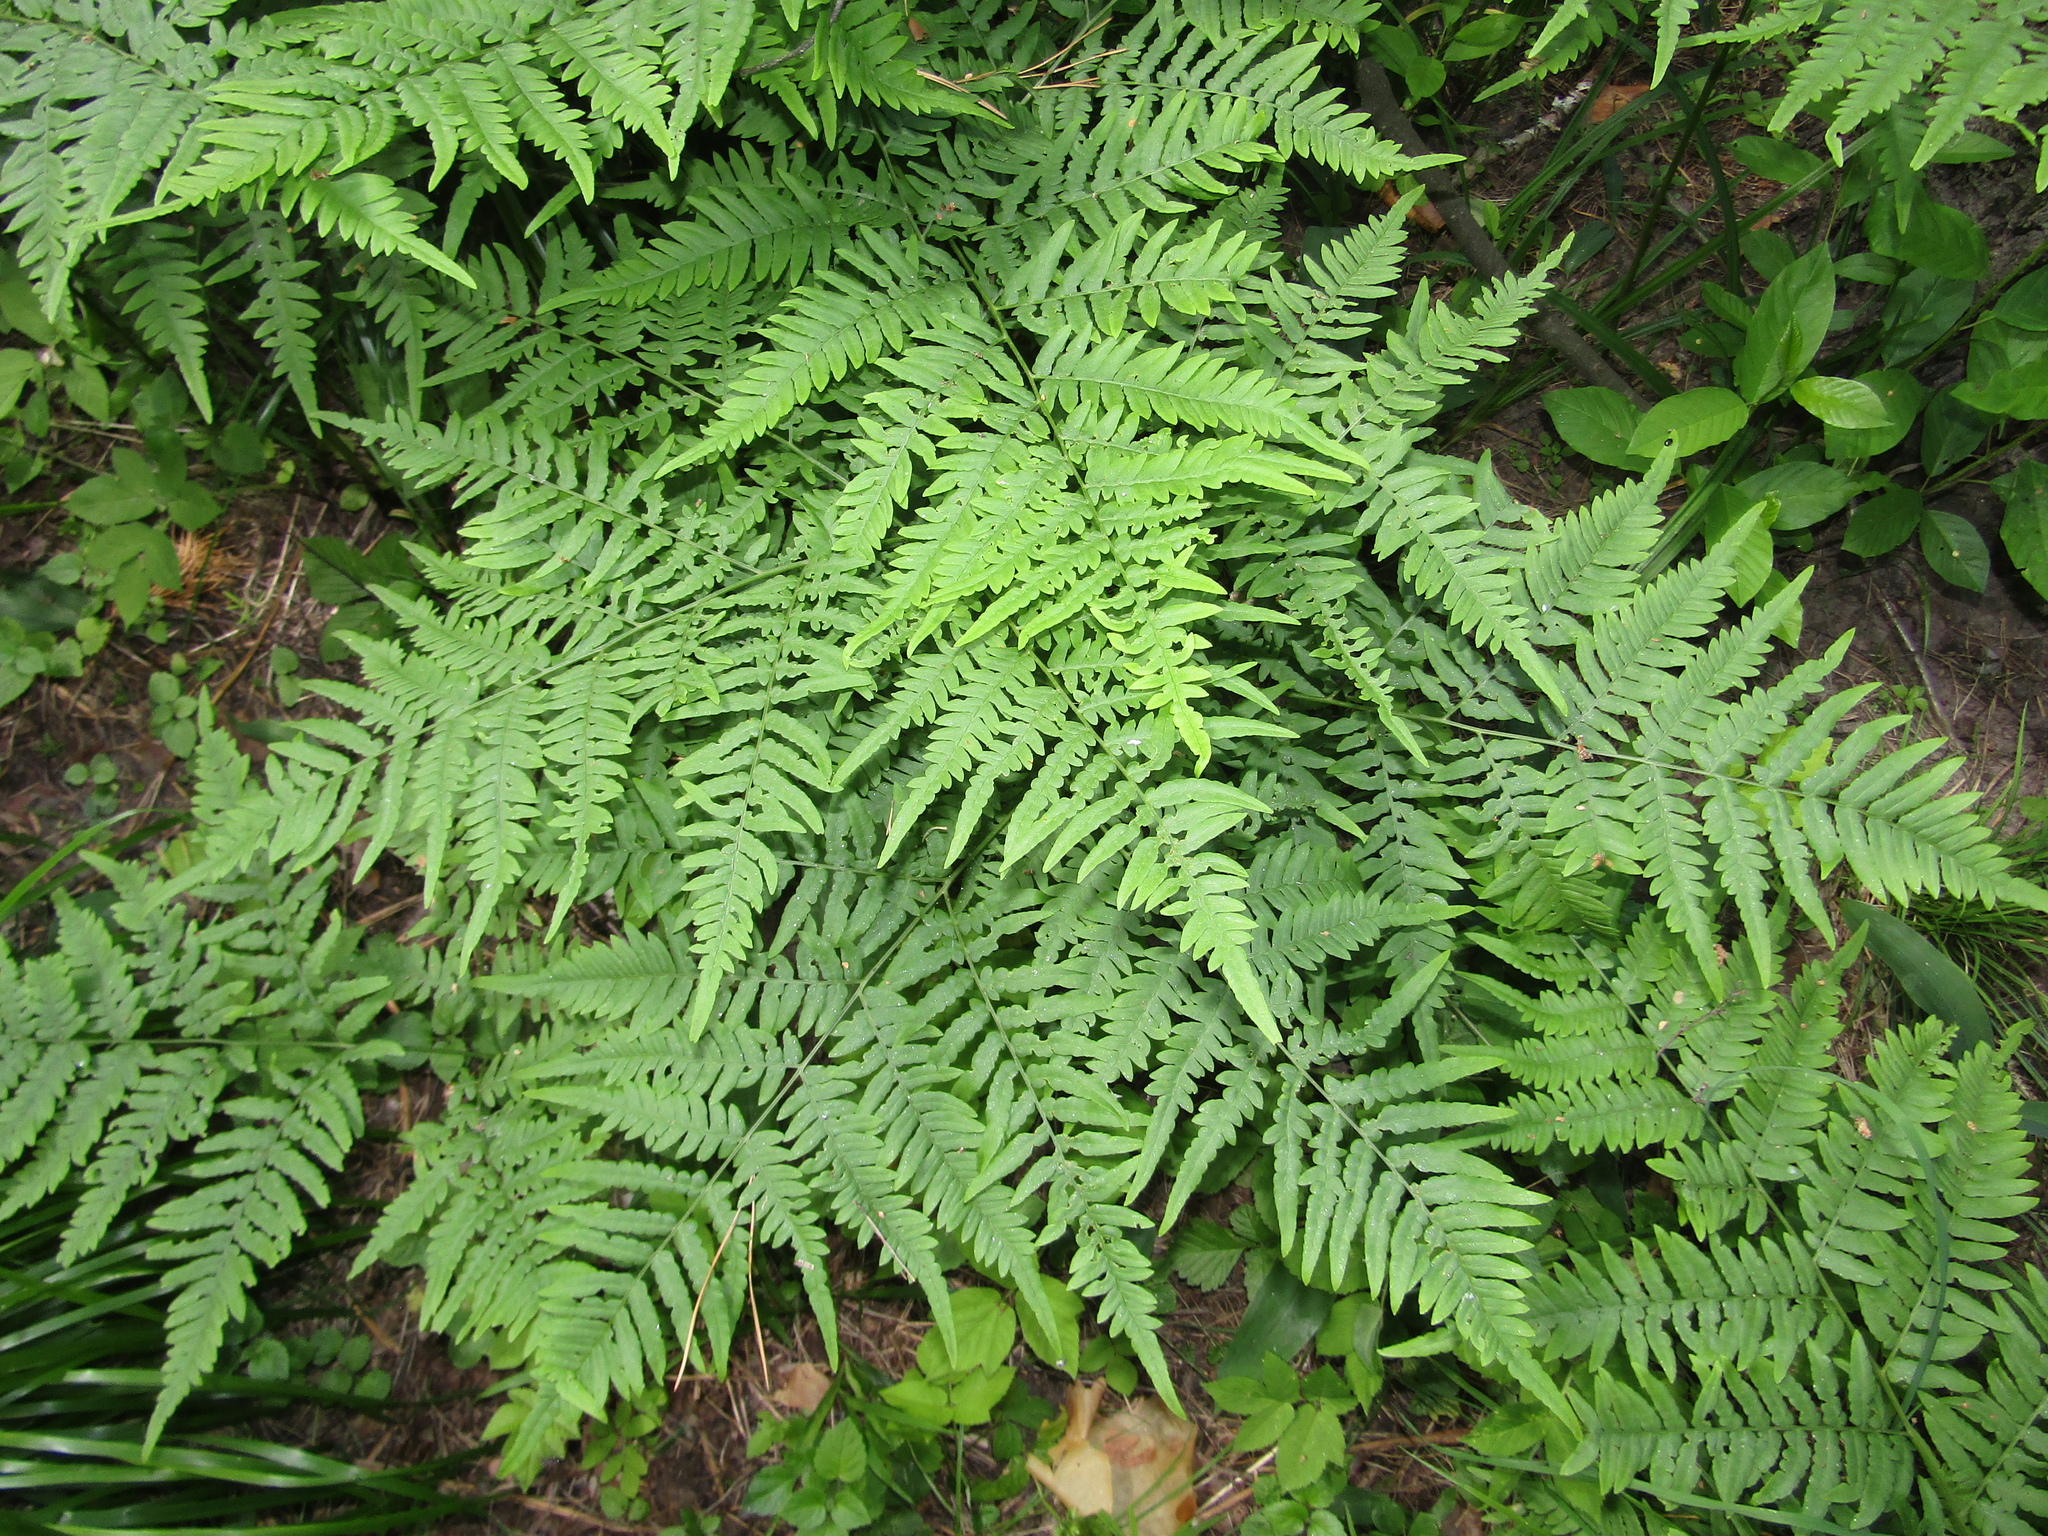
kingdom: Plantae
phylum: Tracheophyta
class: Polypodiopsida
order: Polypodiales
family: Dennstaedtiaceae
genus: Pteridium
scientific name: Pteridium aquilinum
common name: Bracken
